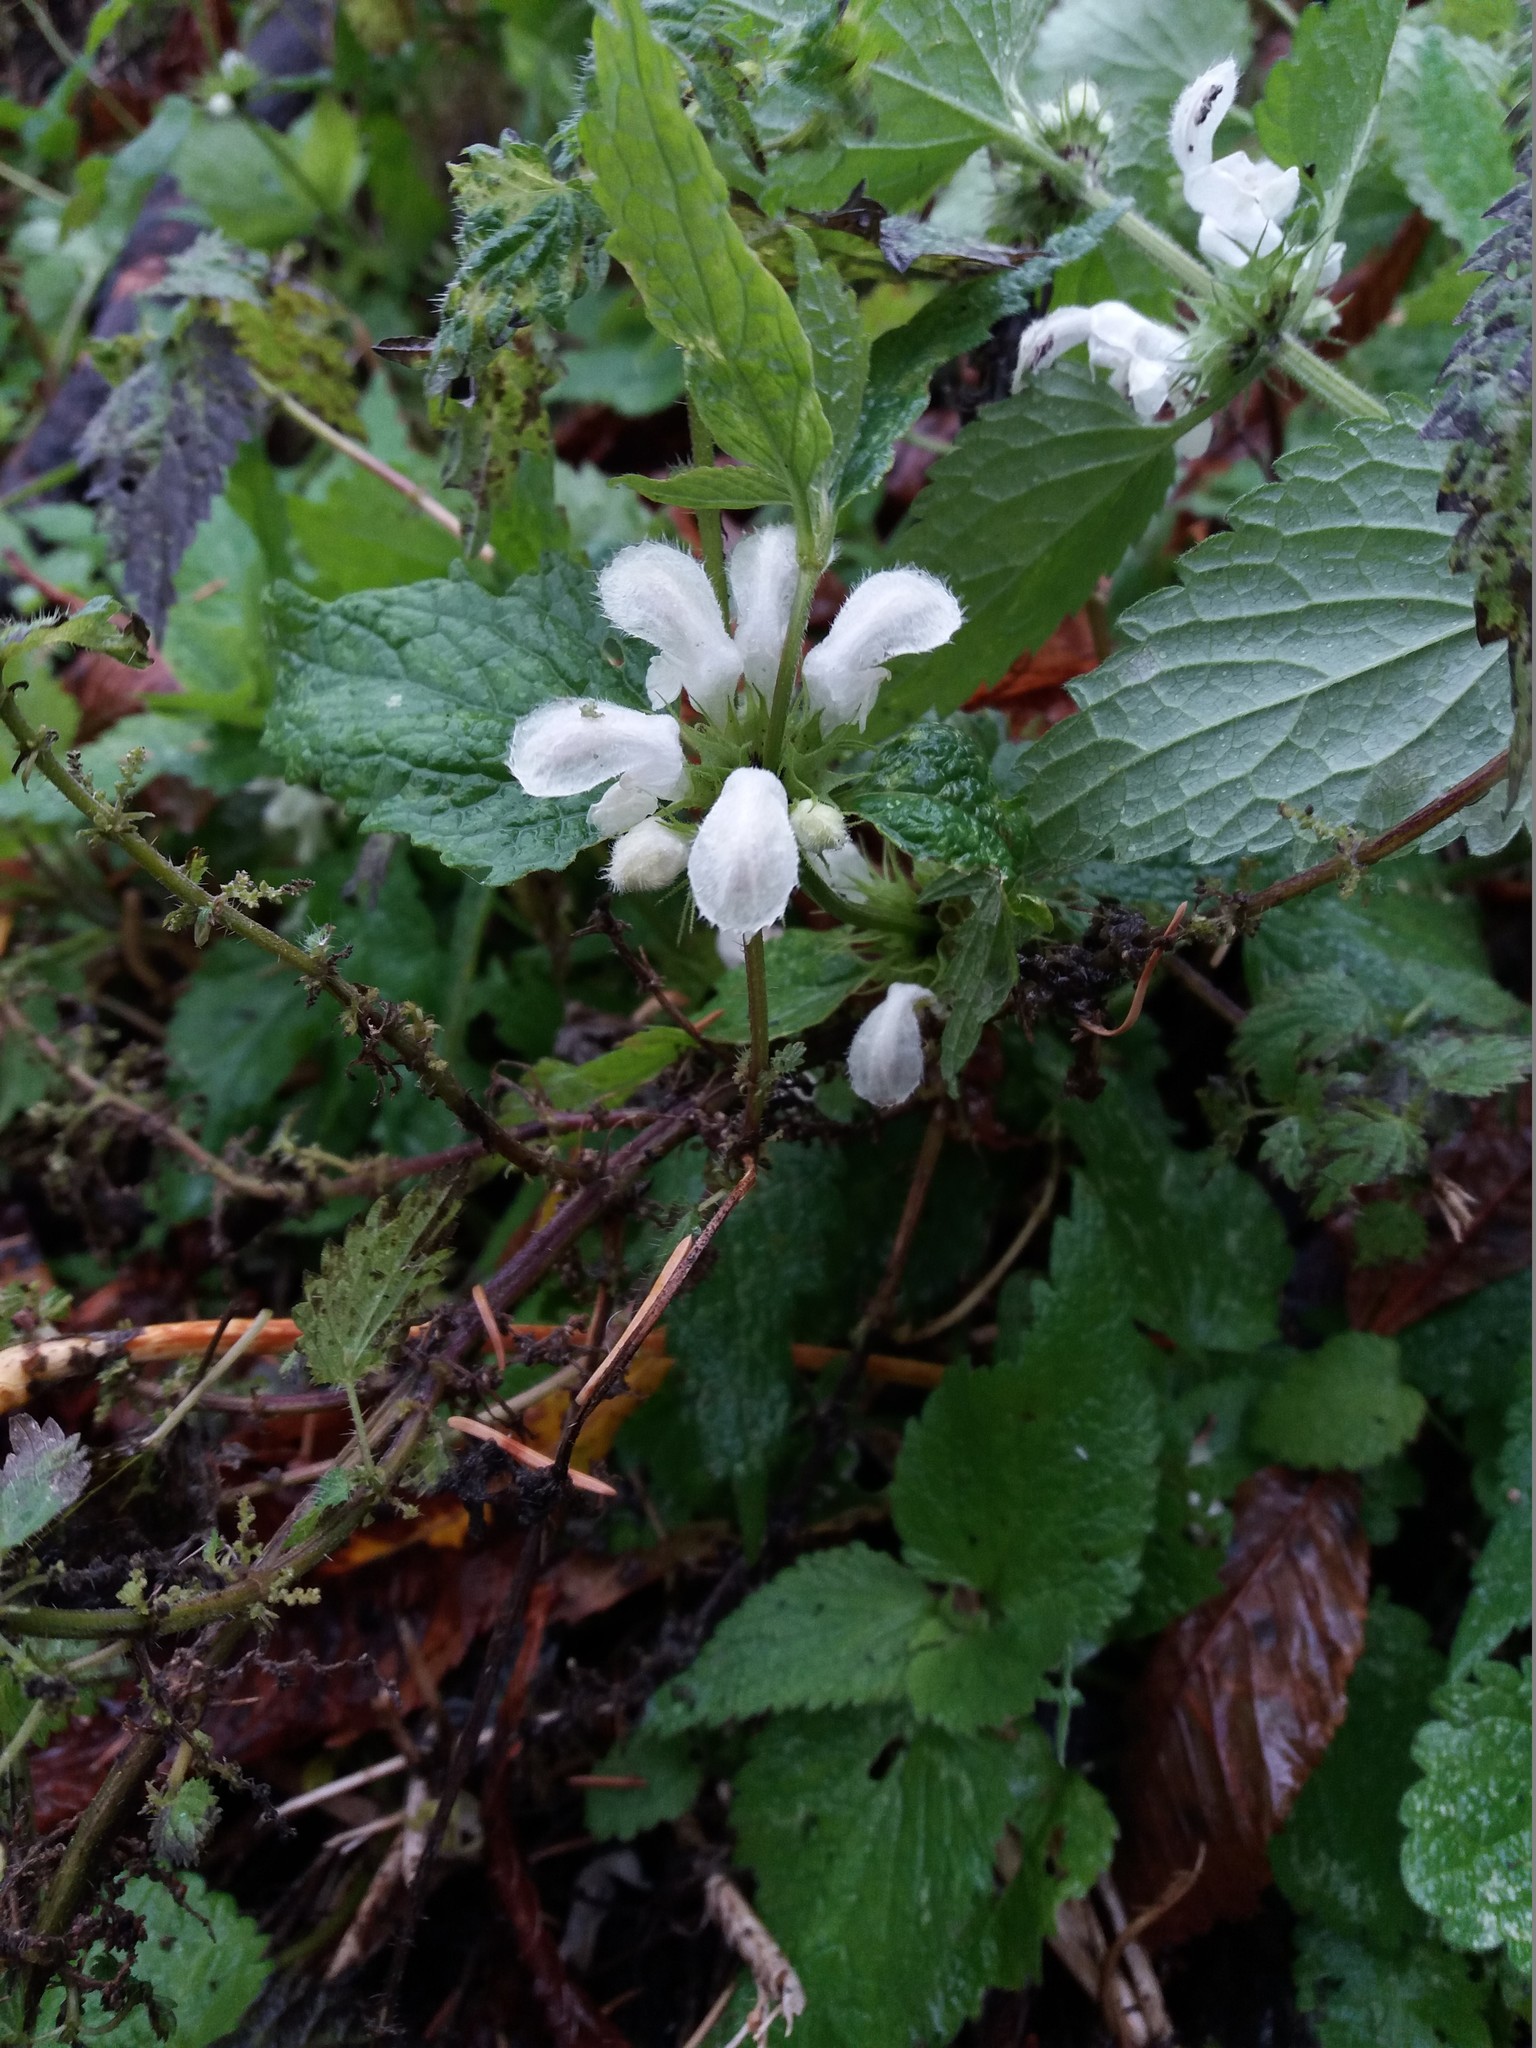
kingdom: Plantae
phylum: Tracheophyta
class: Magnoliopsida
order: Lamiales
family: Lamiaceae
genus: Lamium
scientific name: Lamium album
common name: White dead-nettle
